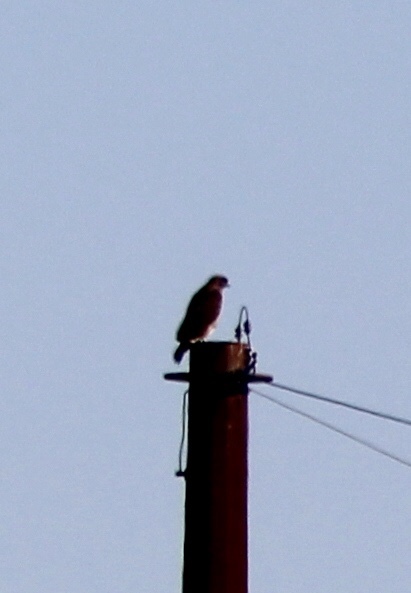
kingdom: Animalia
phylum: Chordata
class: Aves
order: Accipitriformes
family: Accipitridae
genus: Buteo
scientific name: Buteo jamaicensis
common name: Red-tailed hawk
